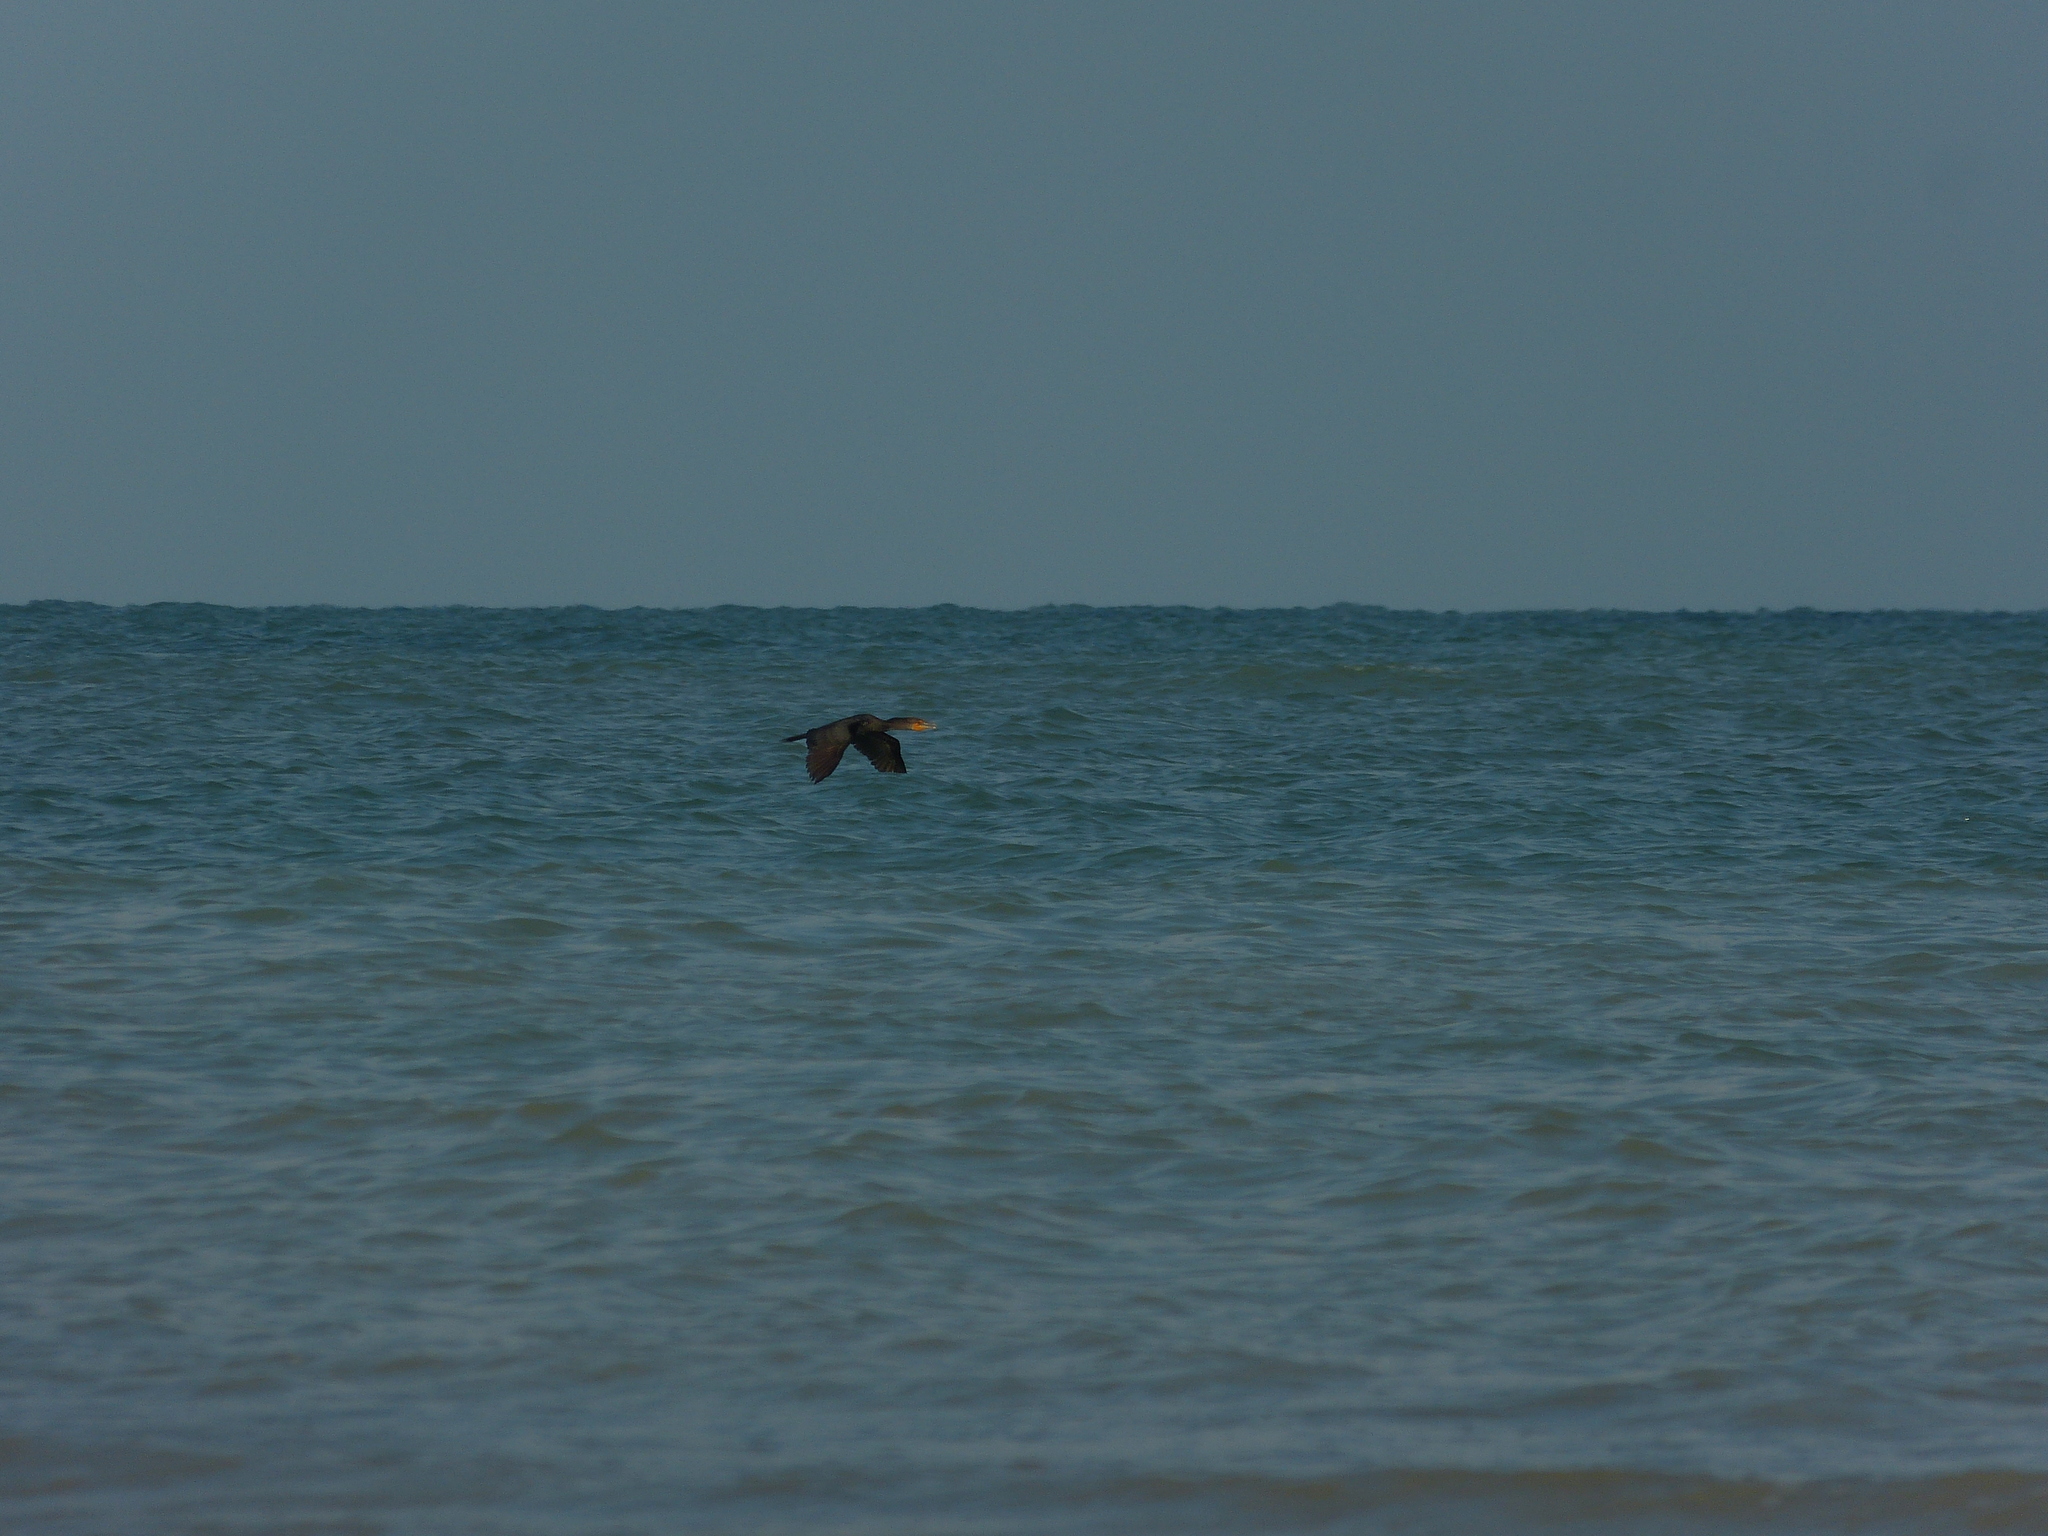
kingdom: Animalia
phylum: Chordata
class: Aves
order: Suliformes
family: Phalacrocoracidae
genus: Phalacrocorax
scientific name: Phalacrocorax auritus
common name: Double-crested cormorant
